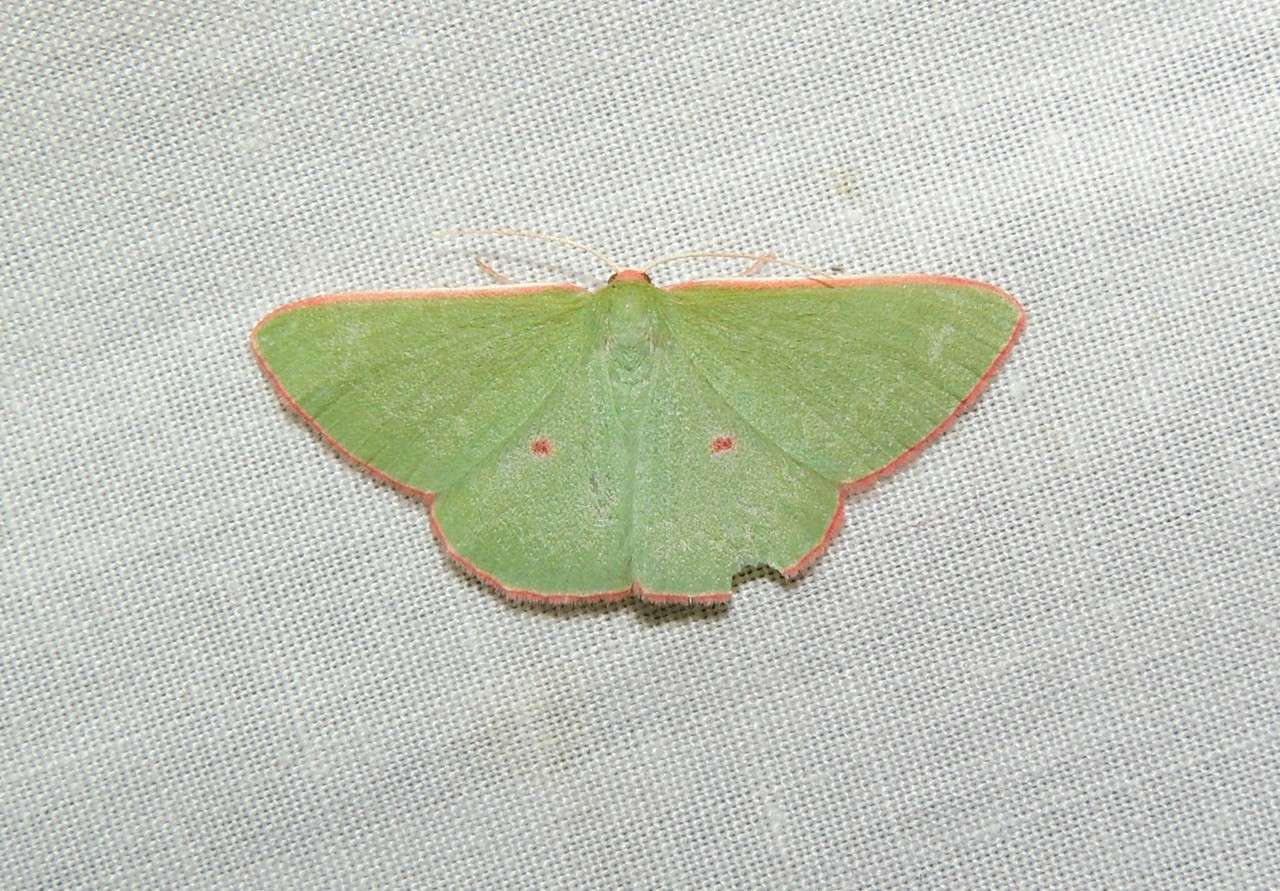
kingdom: Animalia
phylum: Arthropoda
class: Insecta
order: Lepidoptera
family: Geometridae
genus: Chlorocoma
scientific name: Chlorocoma cadmaria
